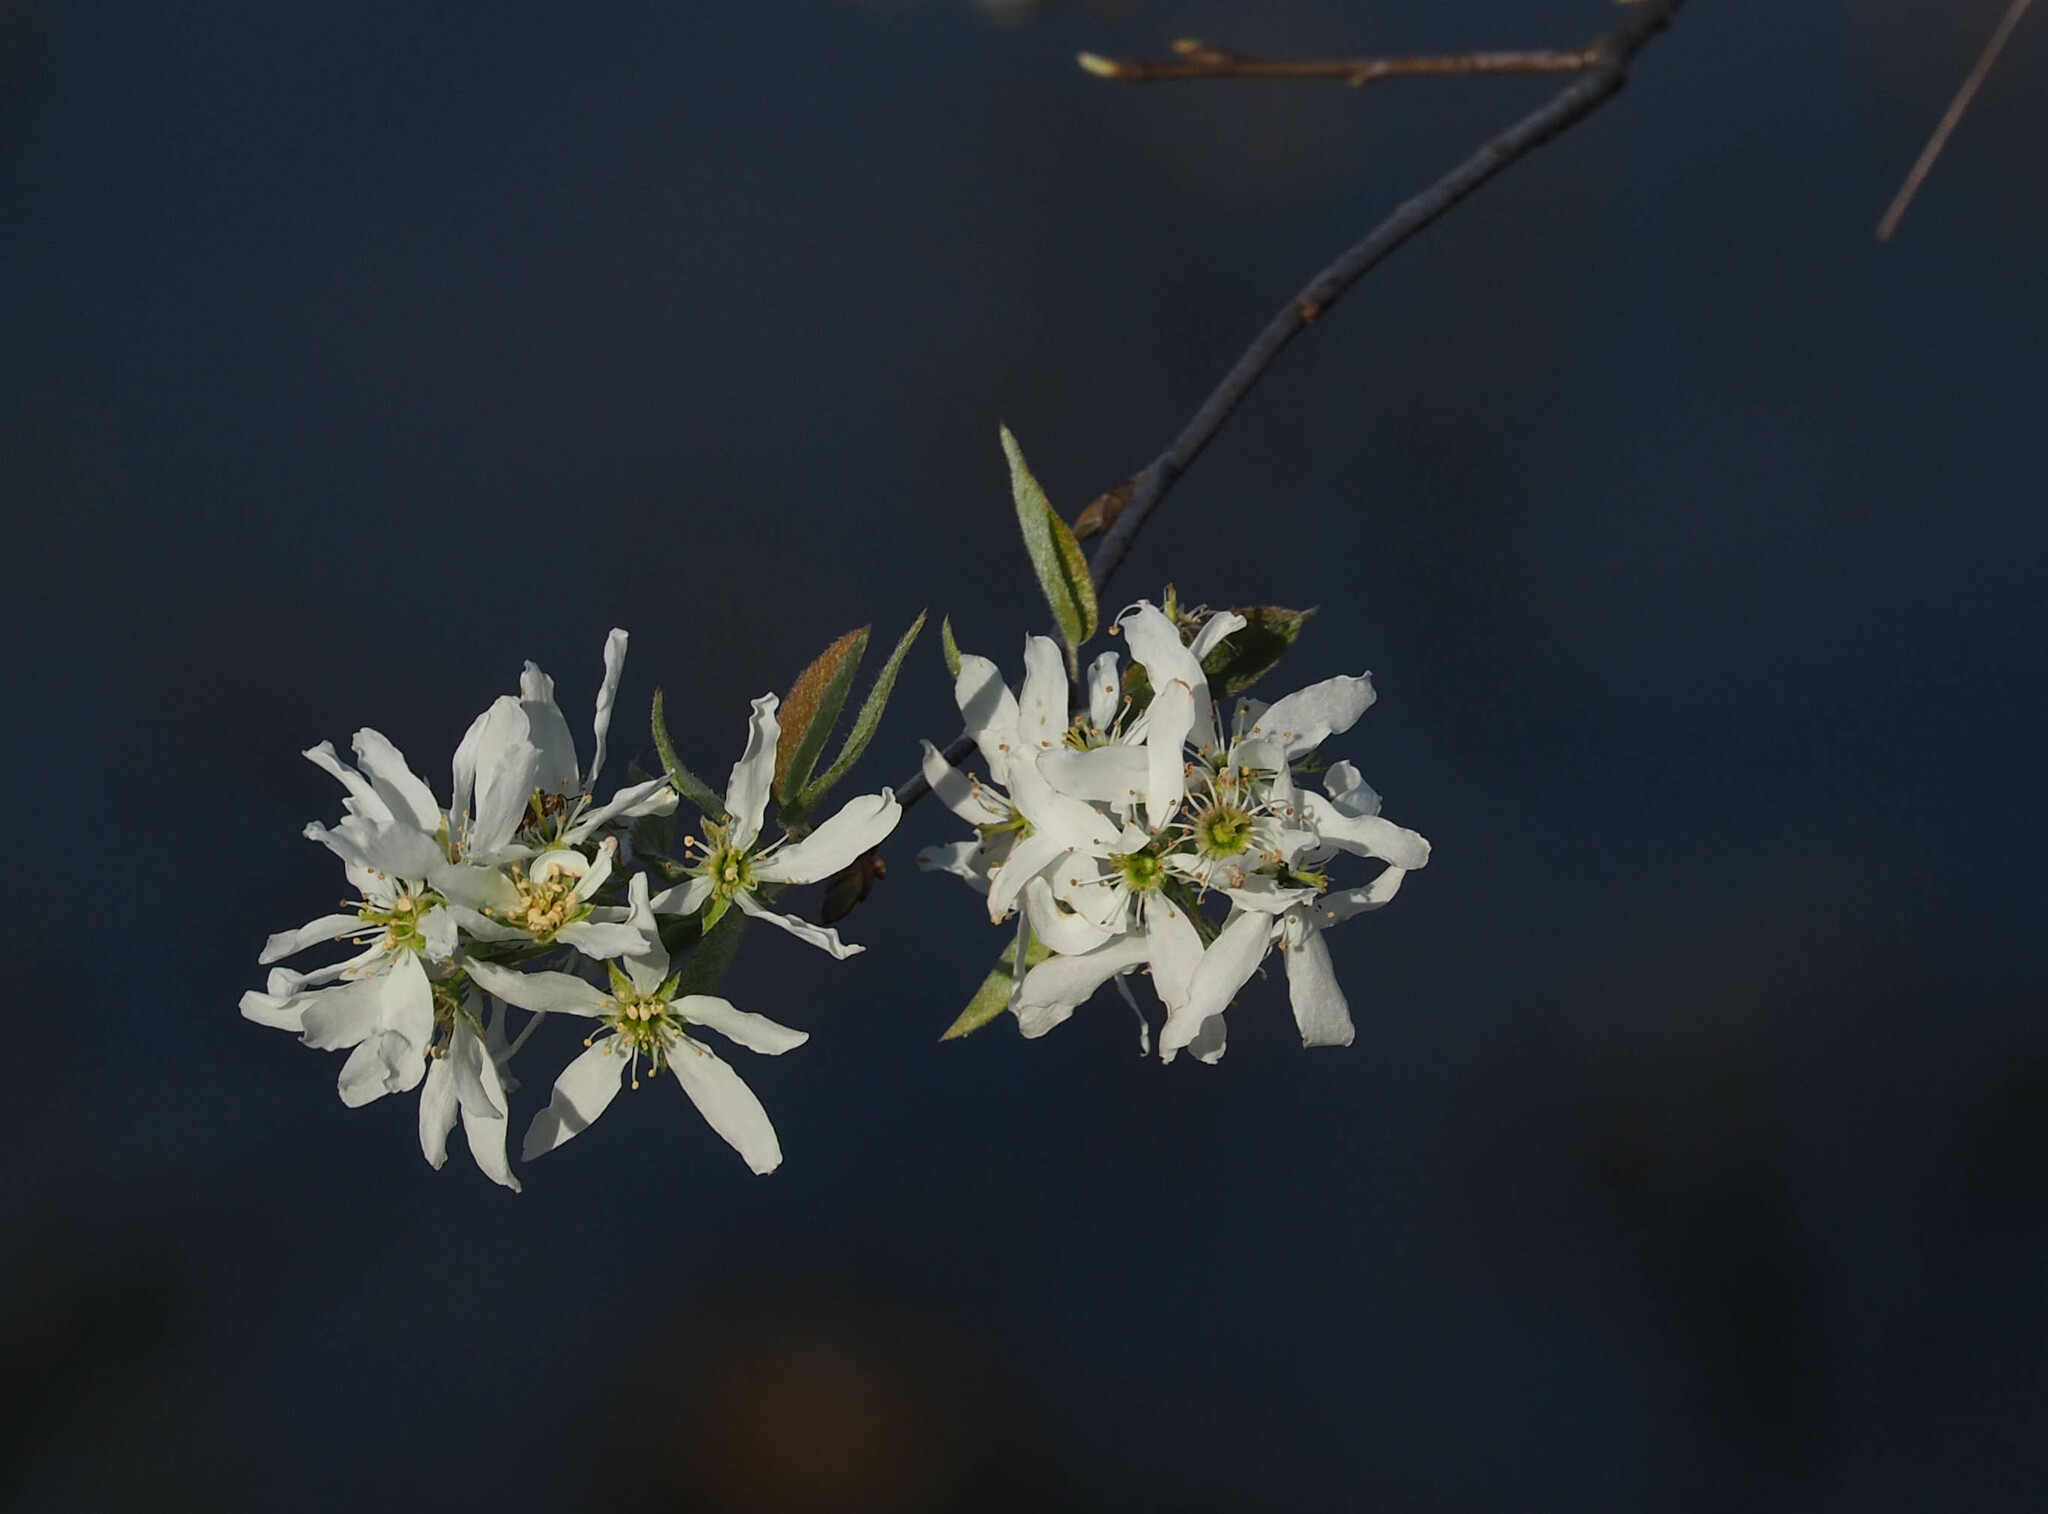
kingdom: Plantae
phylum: Tracheophyta
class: Magnoliopsida
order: Rosales
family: Rosaceae
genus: Amelanchier
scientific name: Amelanchier arborea
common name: Downy serviceberry
